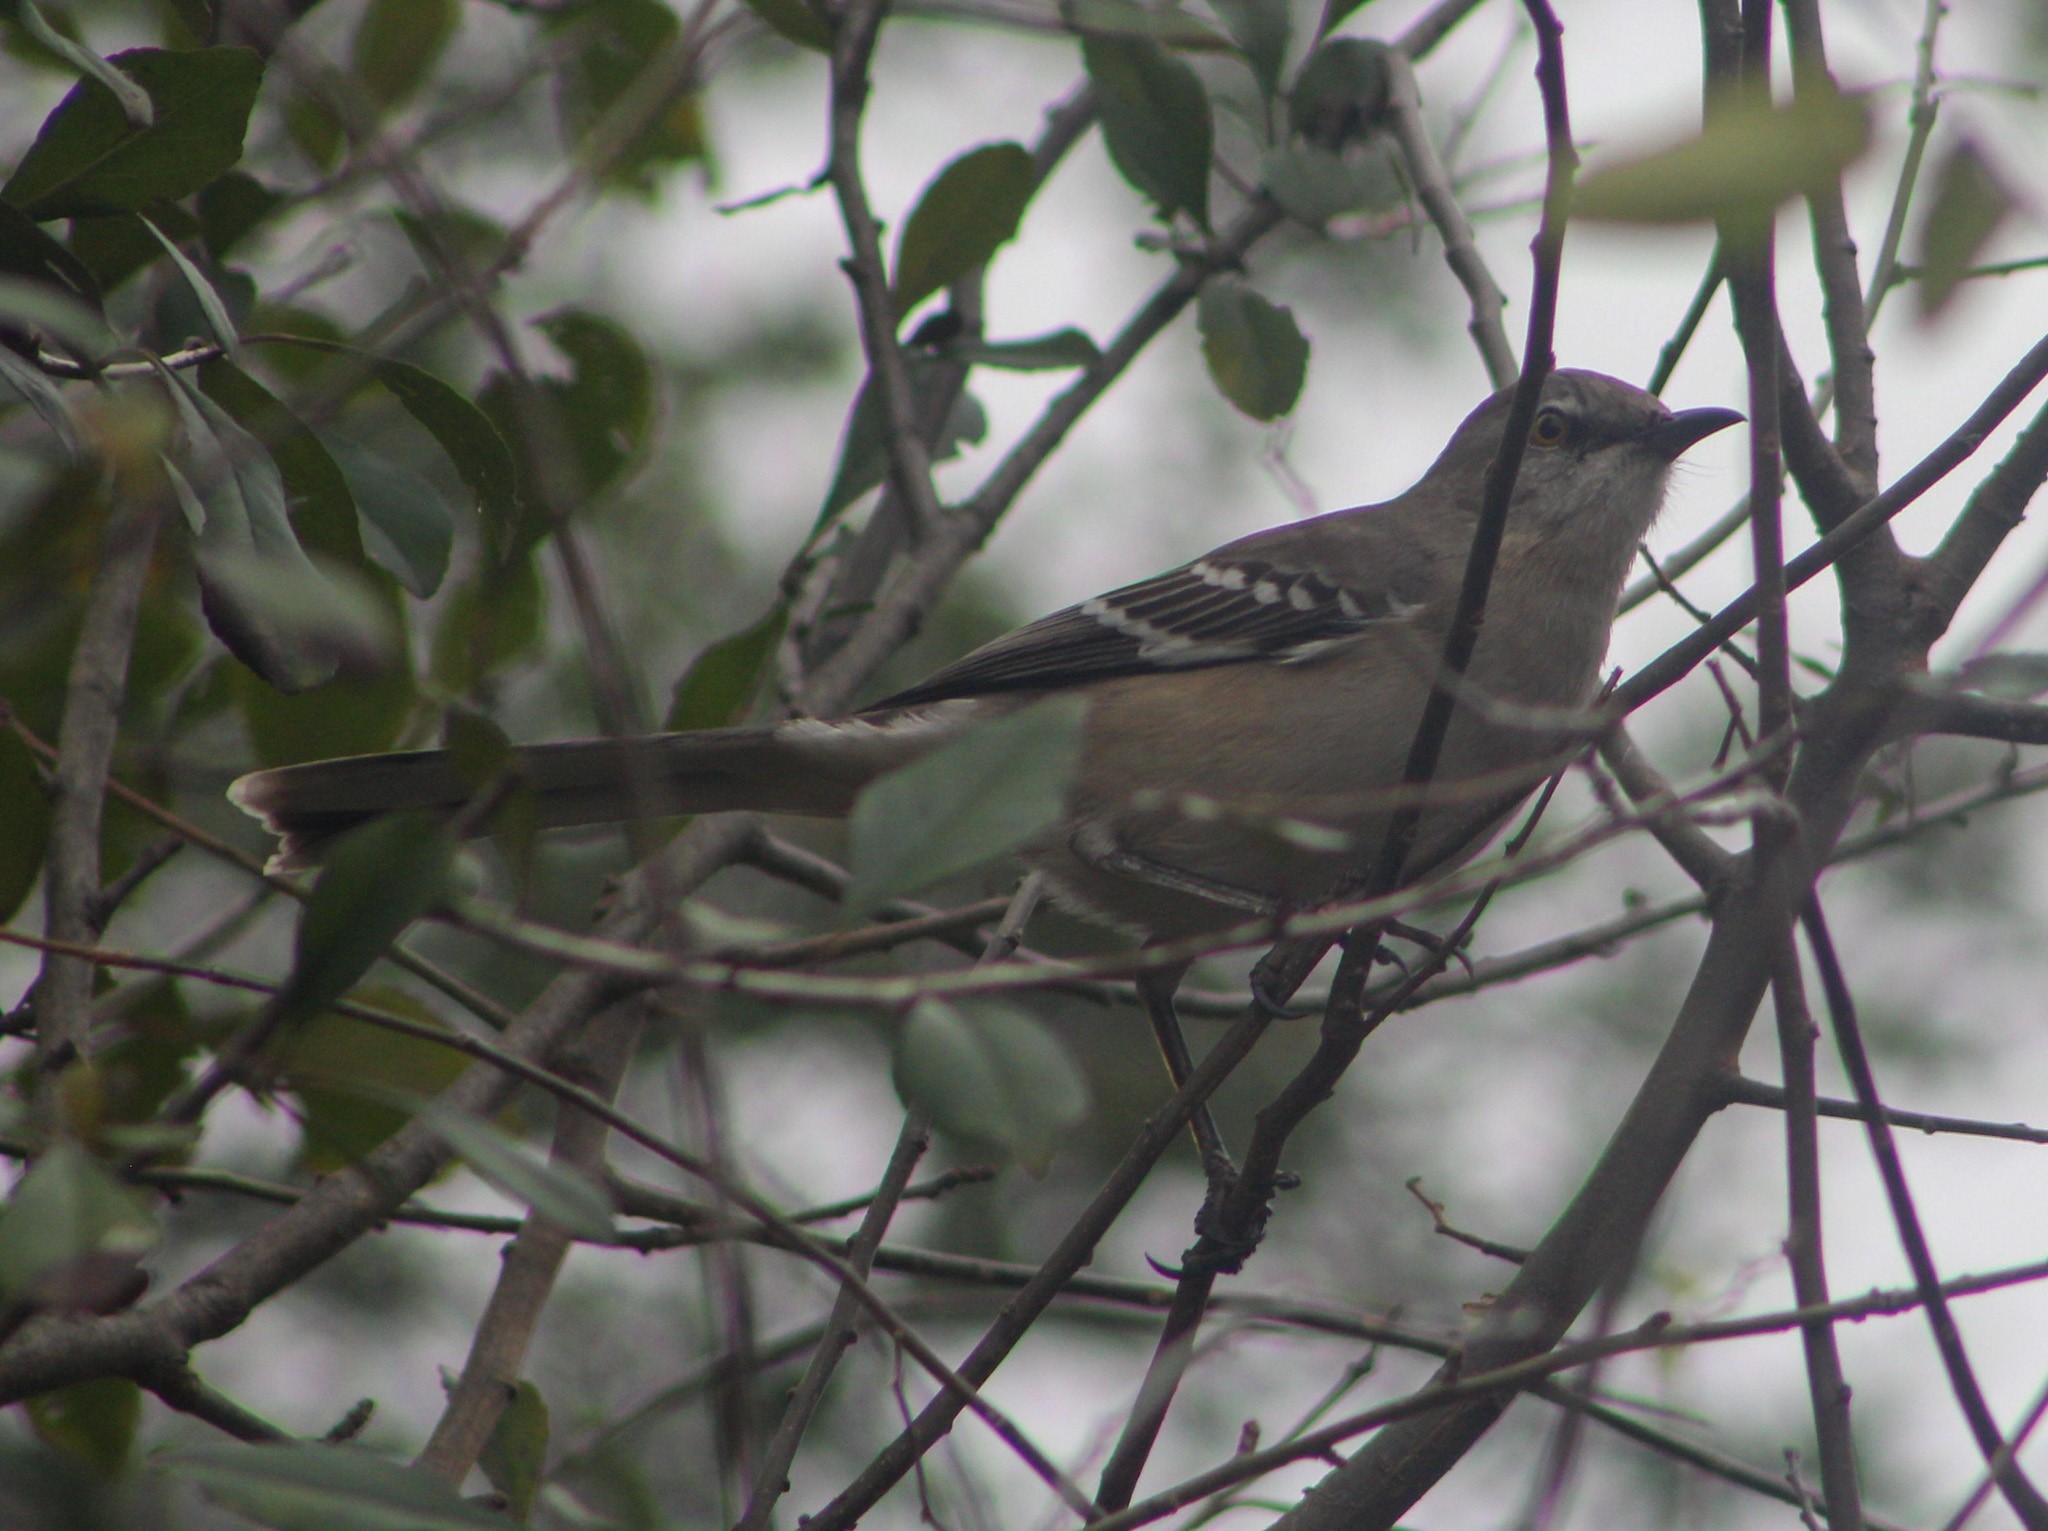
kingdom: Animalia
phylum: Chordata
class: Aves
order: Passeriformes
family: Mimidae
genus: Mimus
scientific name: Mimus polyglottos
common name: Northern mockingbird
